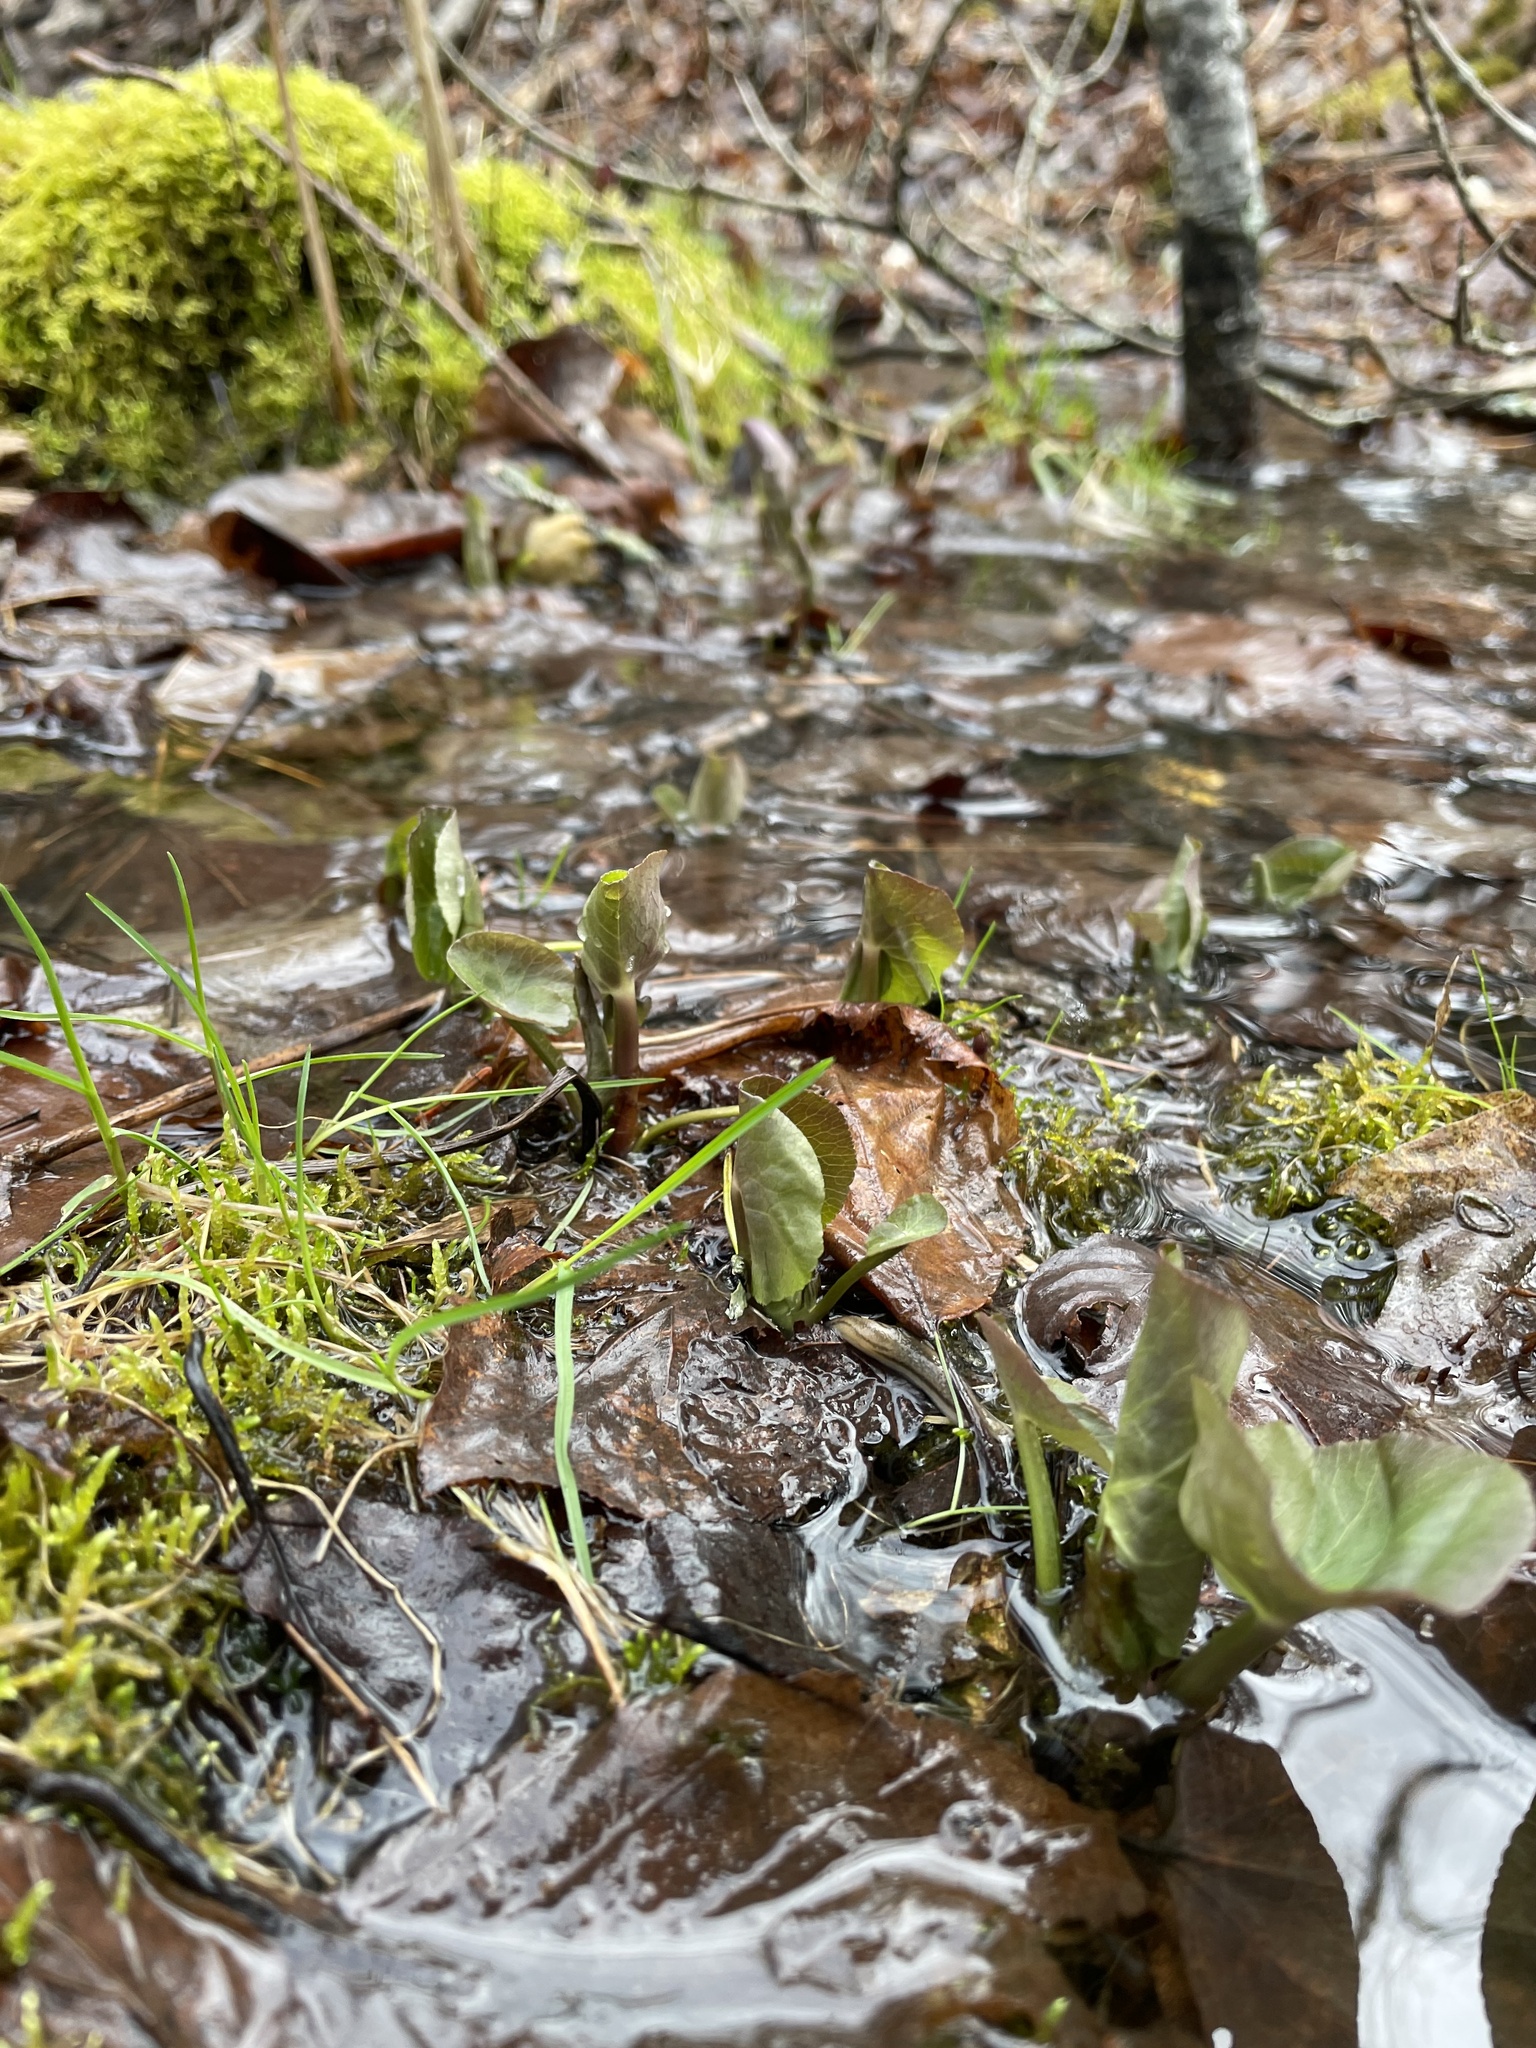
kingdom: Plantae
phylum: Tracheophyta
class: Magnoliopsida
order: Ranunculales
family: Ranunculaceae
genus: Caltha
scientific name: Caltha palustris
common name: Marsh marigold
